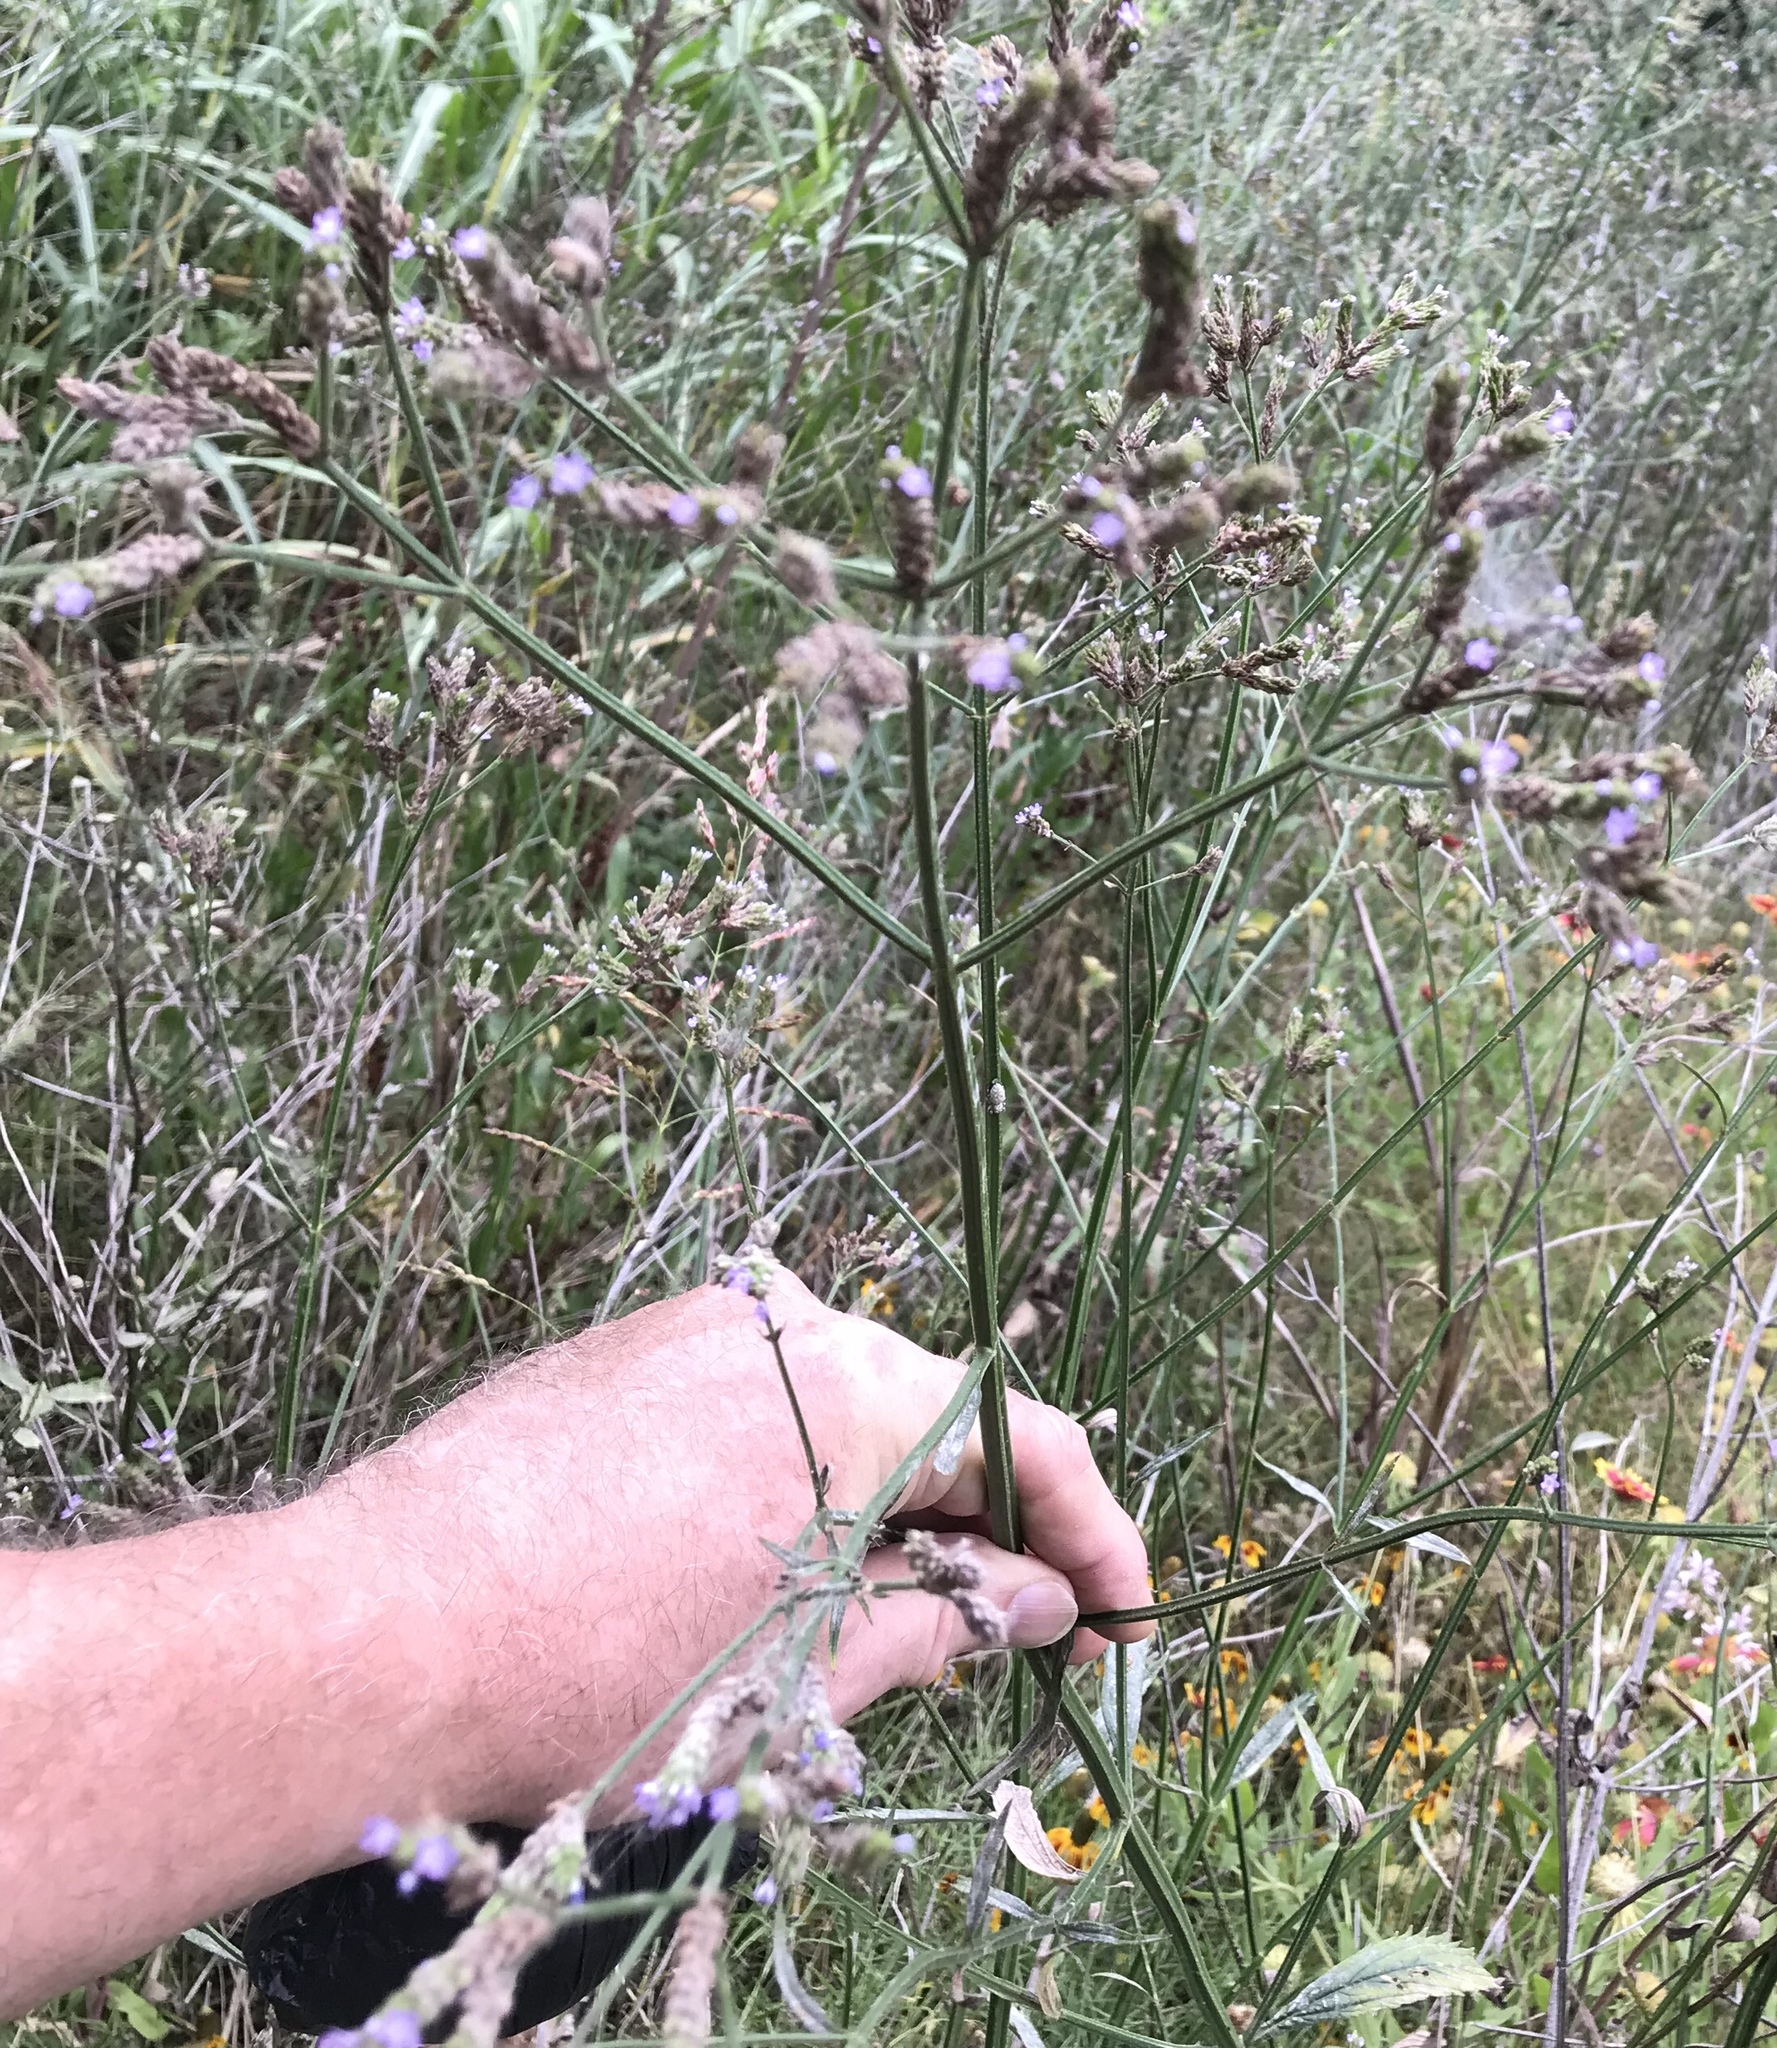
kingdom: Plantae
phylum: Tracheophyta
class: Magnoliopsida
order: Lamiales
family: Verbenaceae
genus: Verbena
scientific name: Verbena brasiliensis
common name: Brazilian vervain
